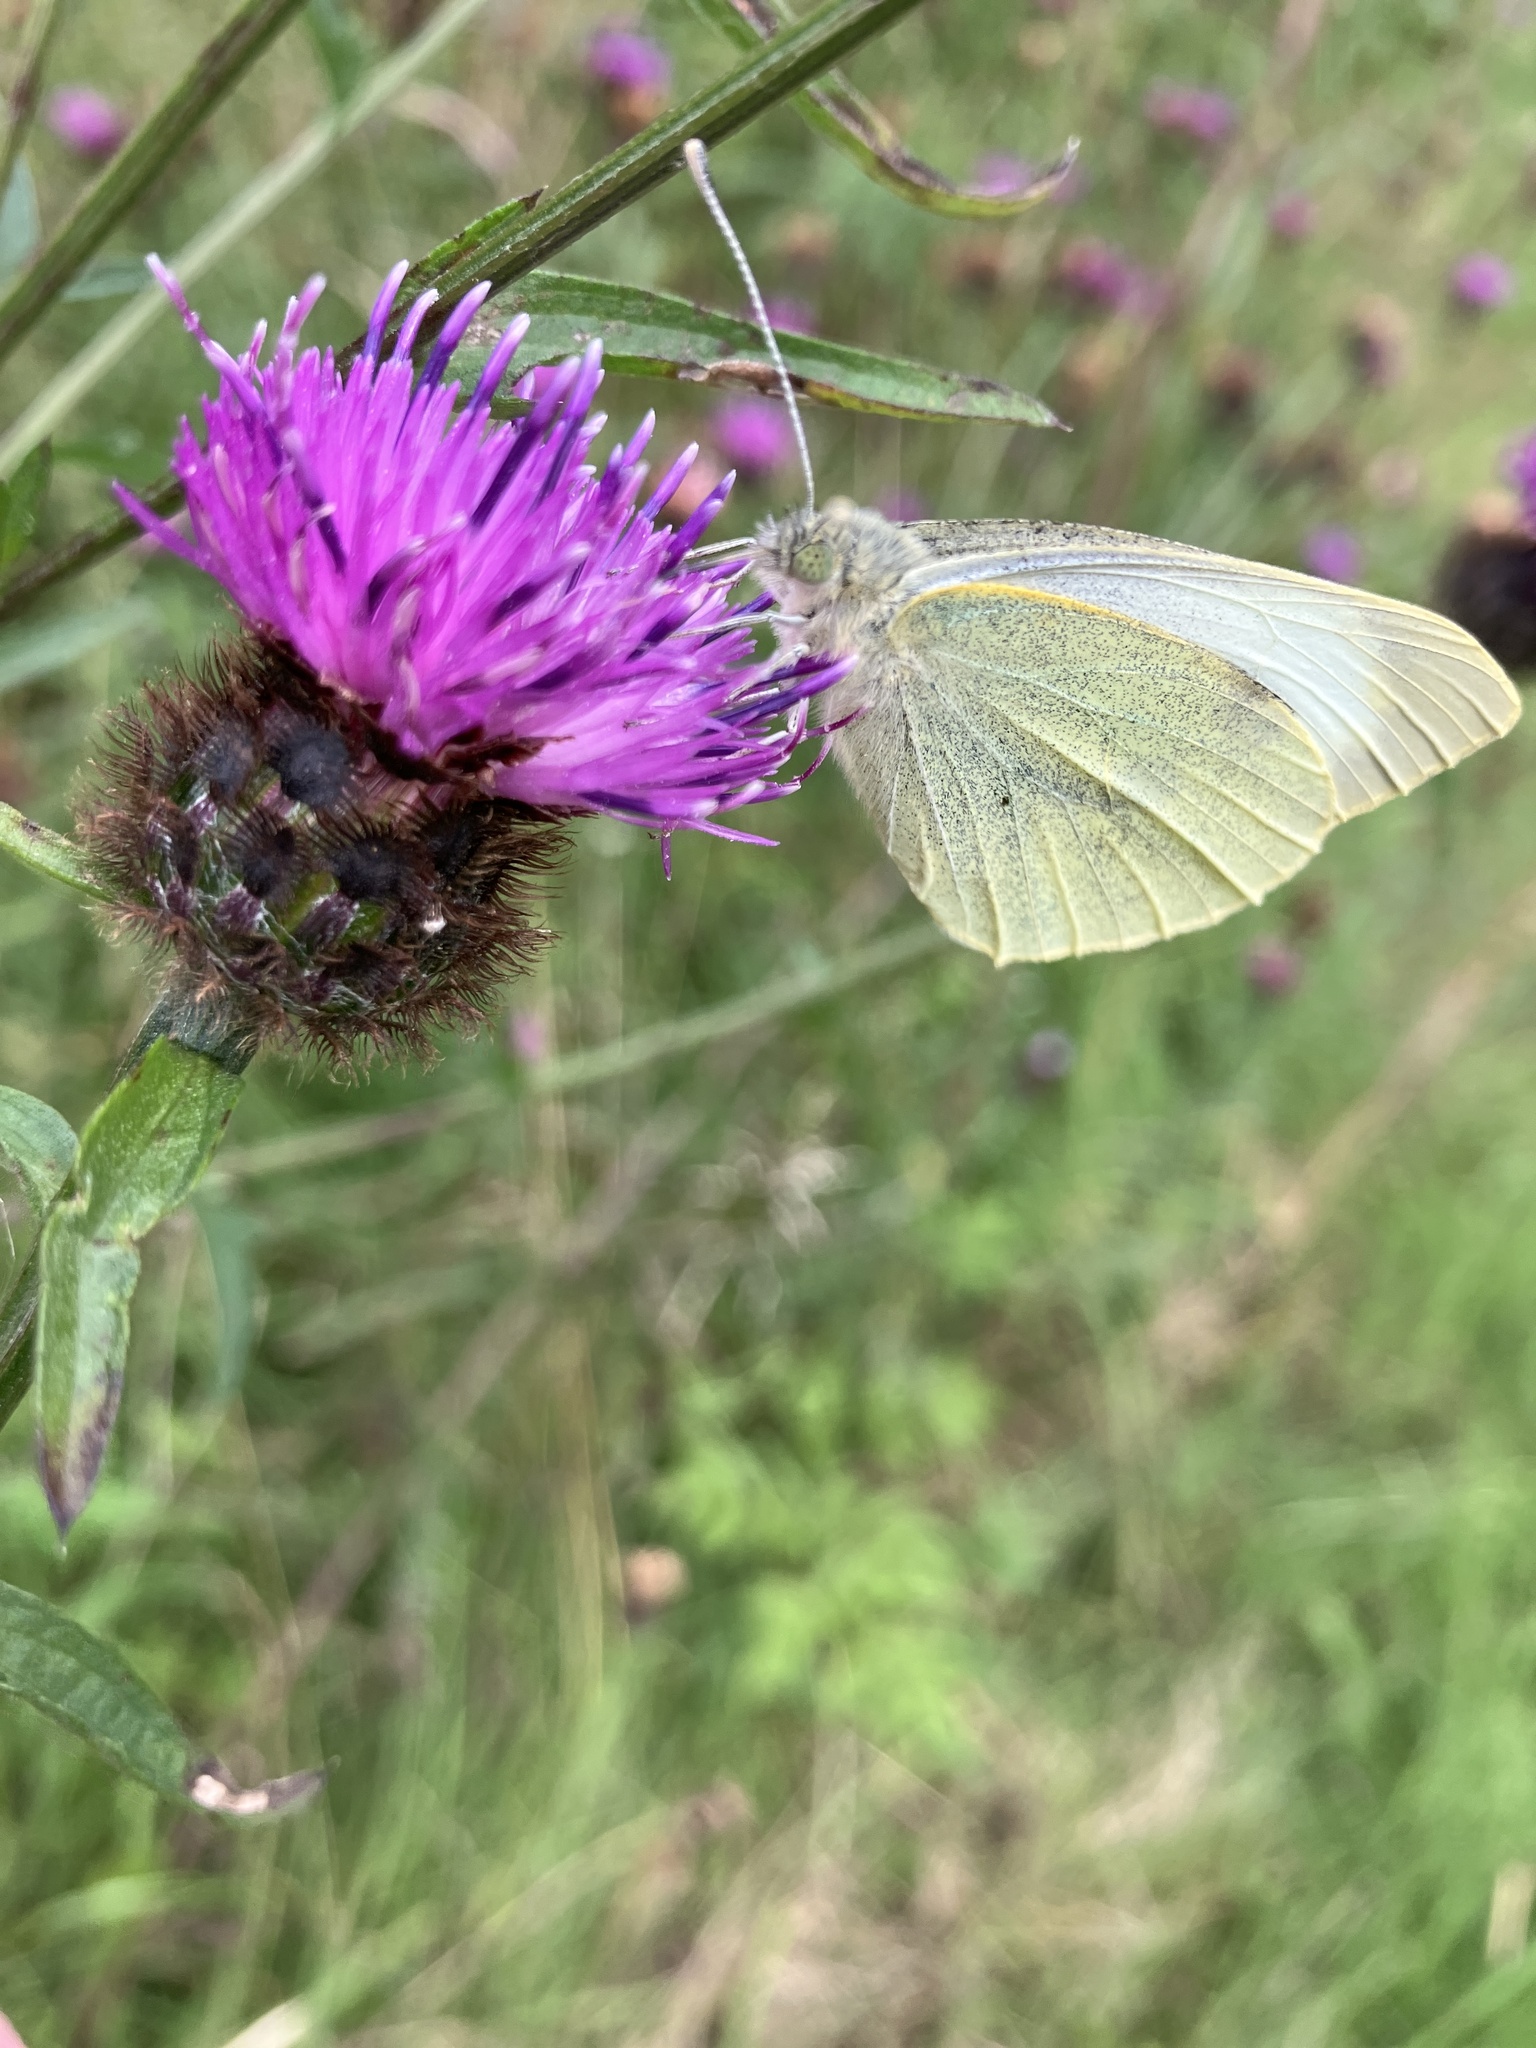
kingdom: Animalia
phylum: Arthropoda
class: Insecta
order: Lepidoptera
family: Pieridae
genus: Pieris
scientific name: Pieris brassicae
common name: Large white
